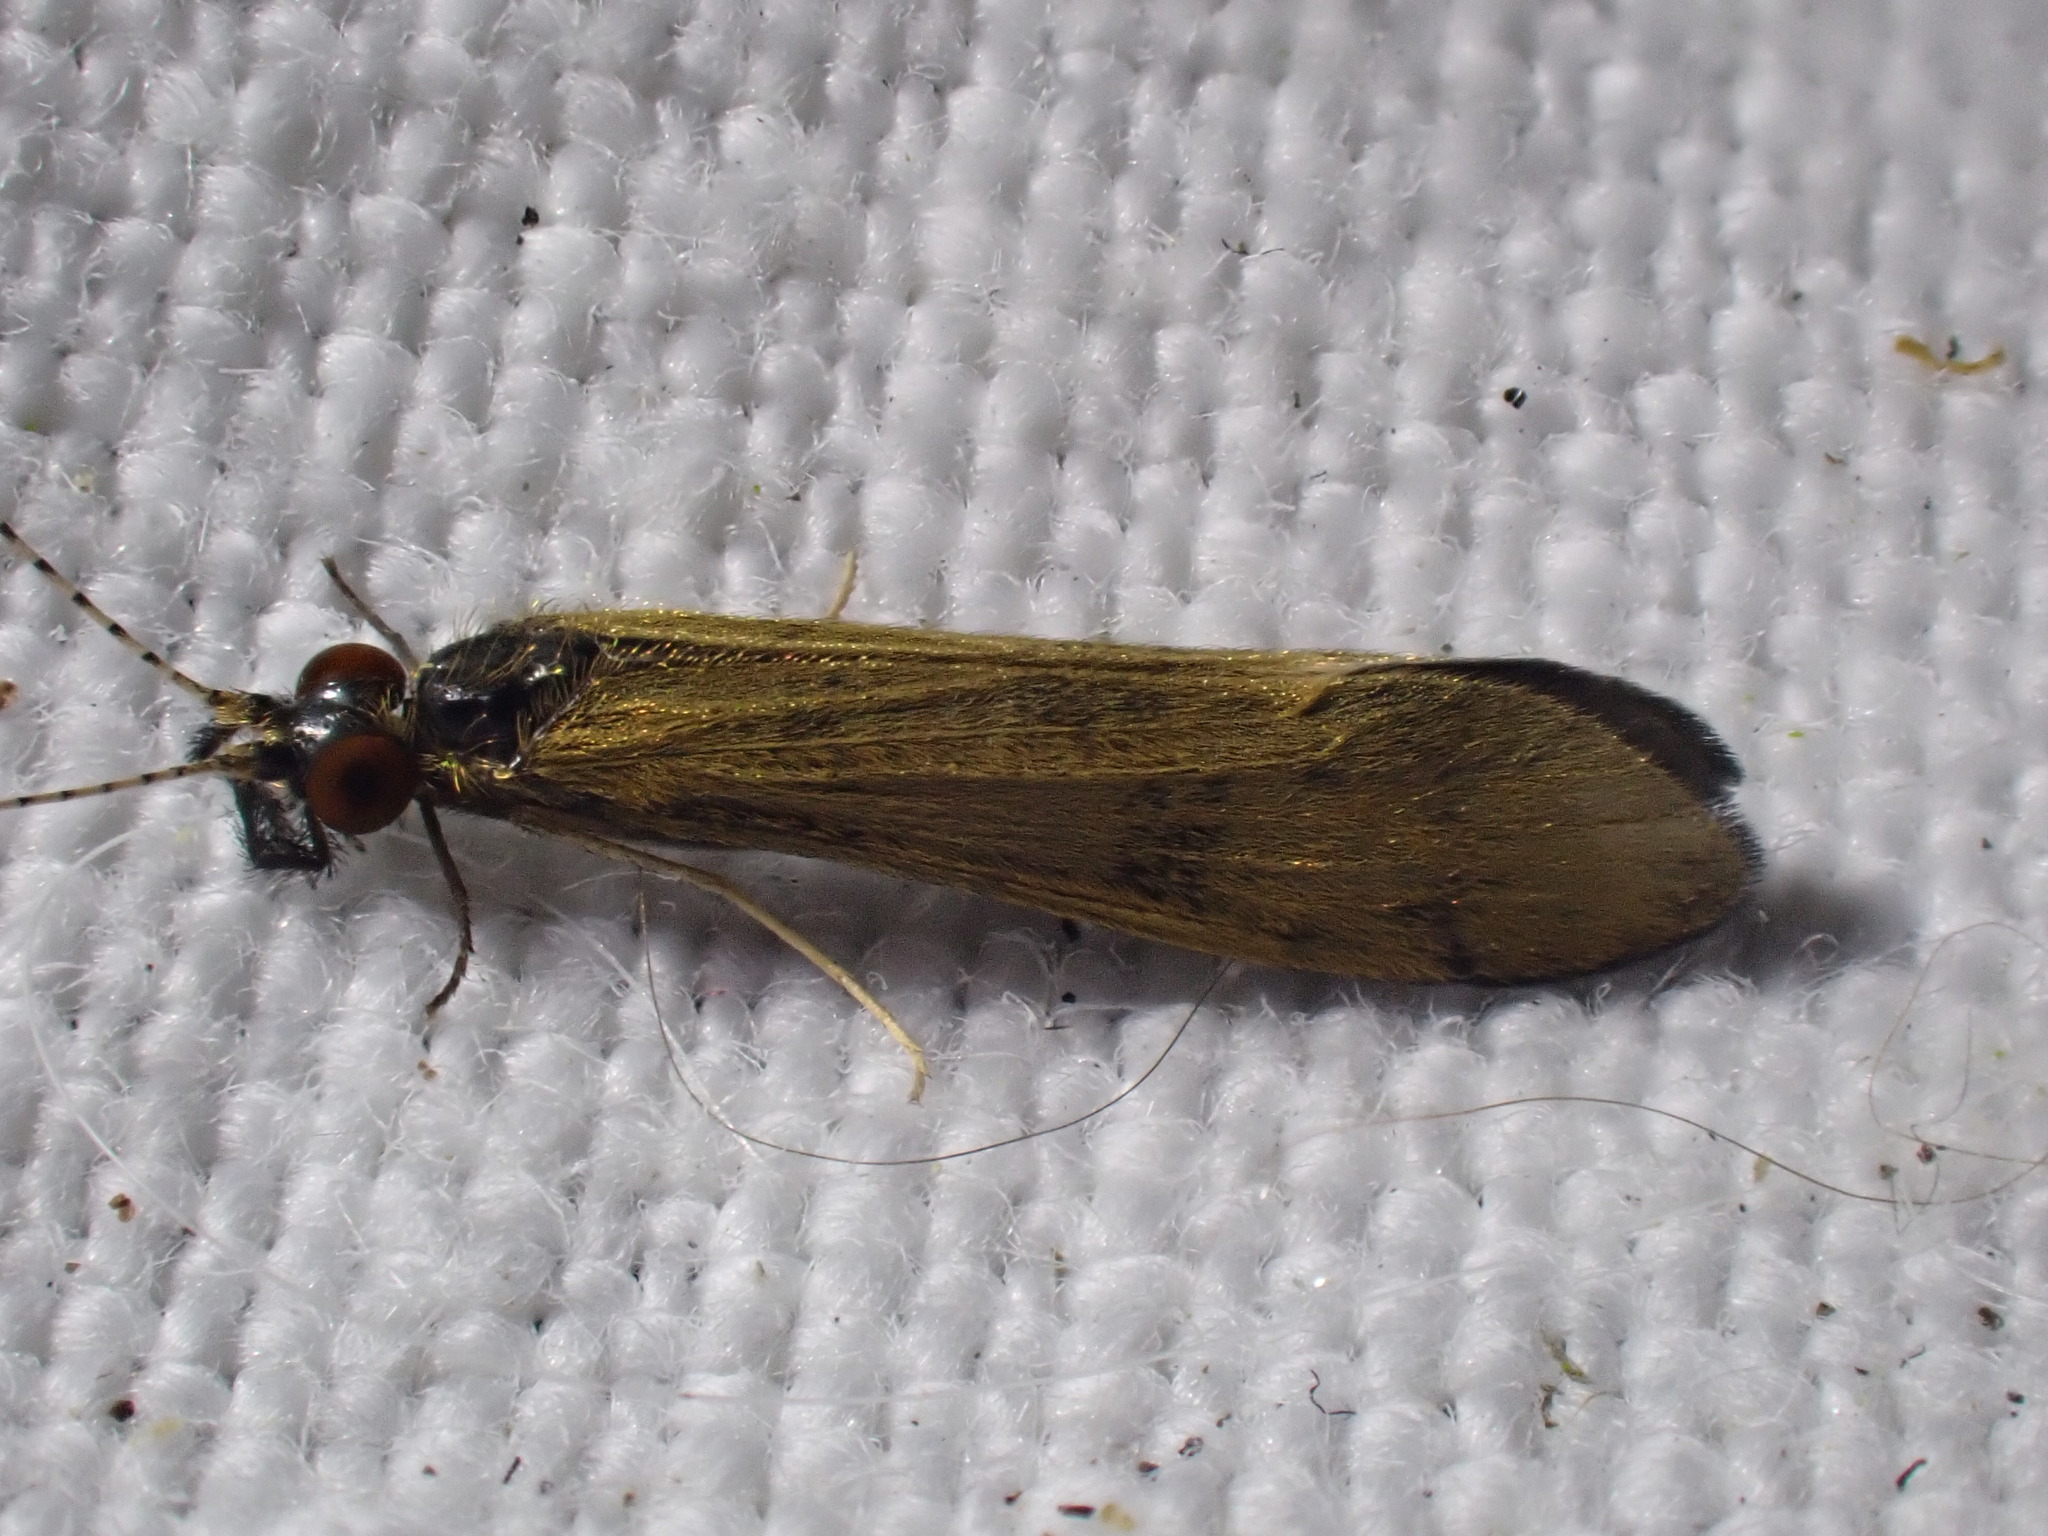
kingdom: Animalia
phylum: Arthropoda
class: Insecta
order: Trichoptera
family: Leptoceridae
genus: Mystacides
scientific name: Mystacides longicornis
